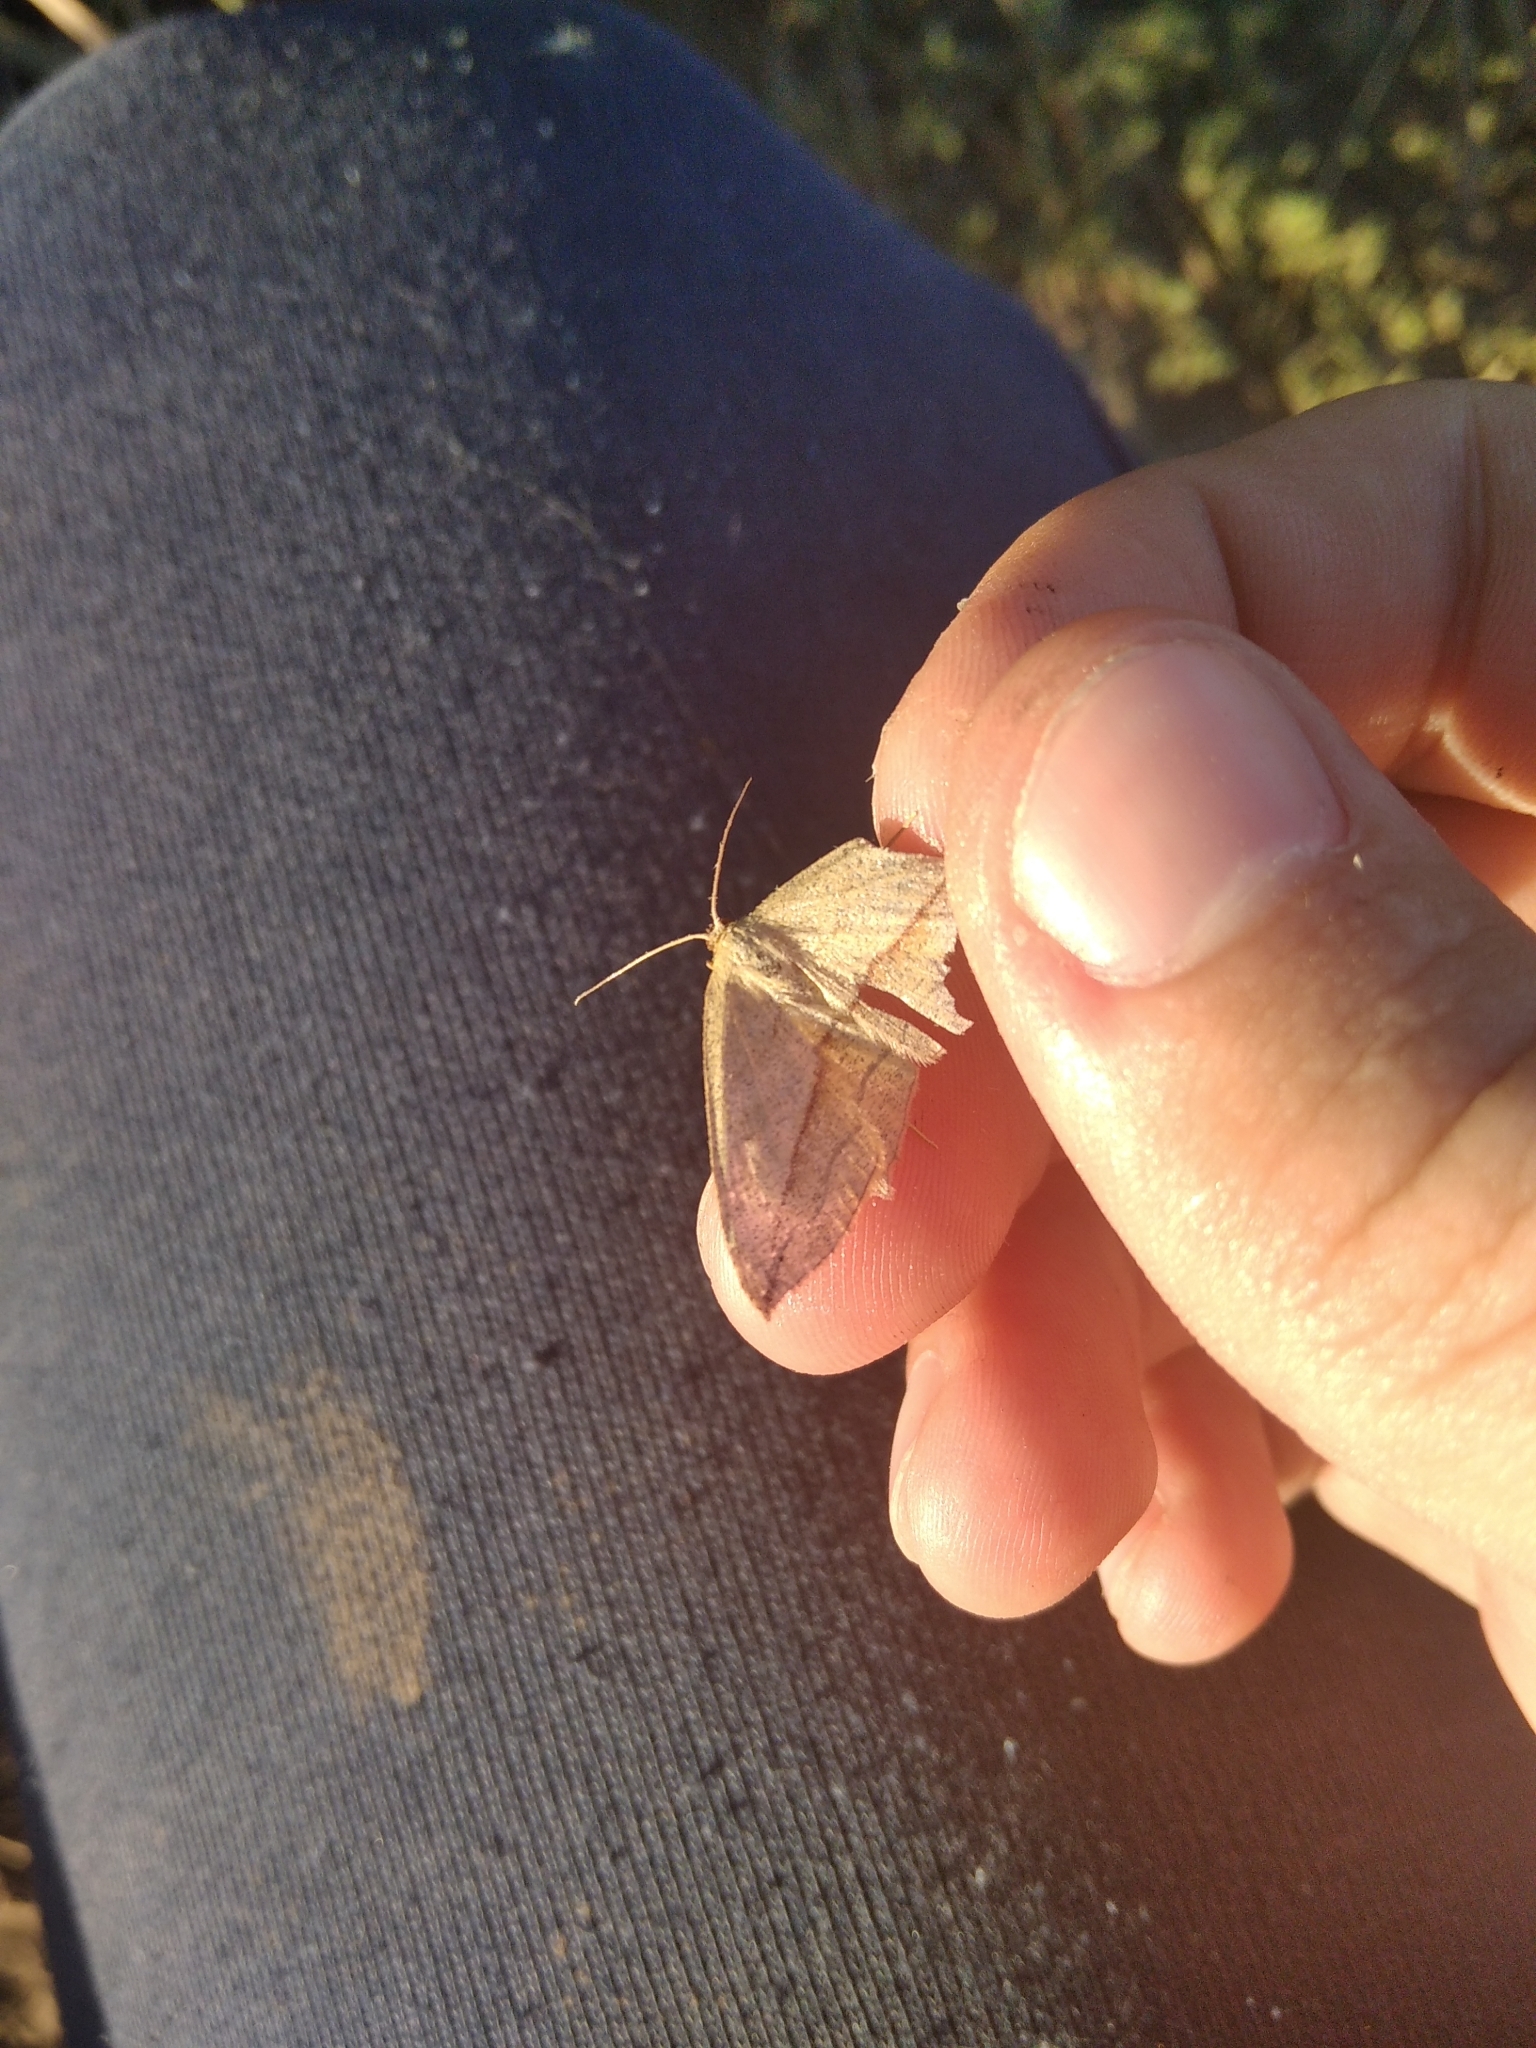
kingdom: Animalia
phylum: Arthropoda
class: Insecta
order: Lepidoptera
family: Geometridae
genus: Timandra
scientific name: Timandra comae
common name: Blood-vein
